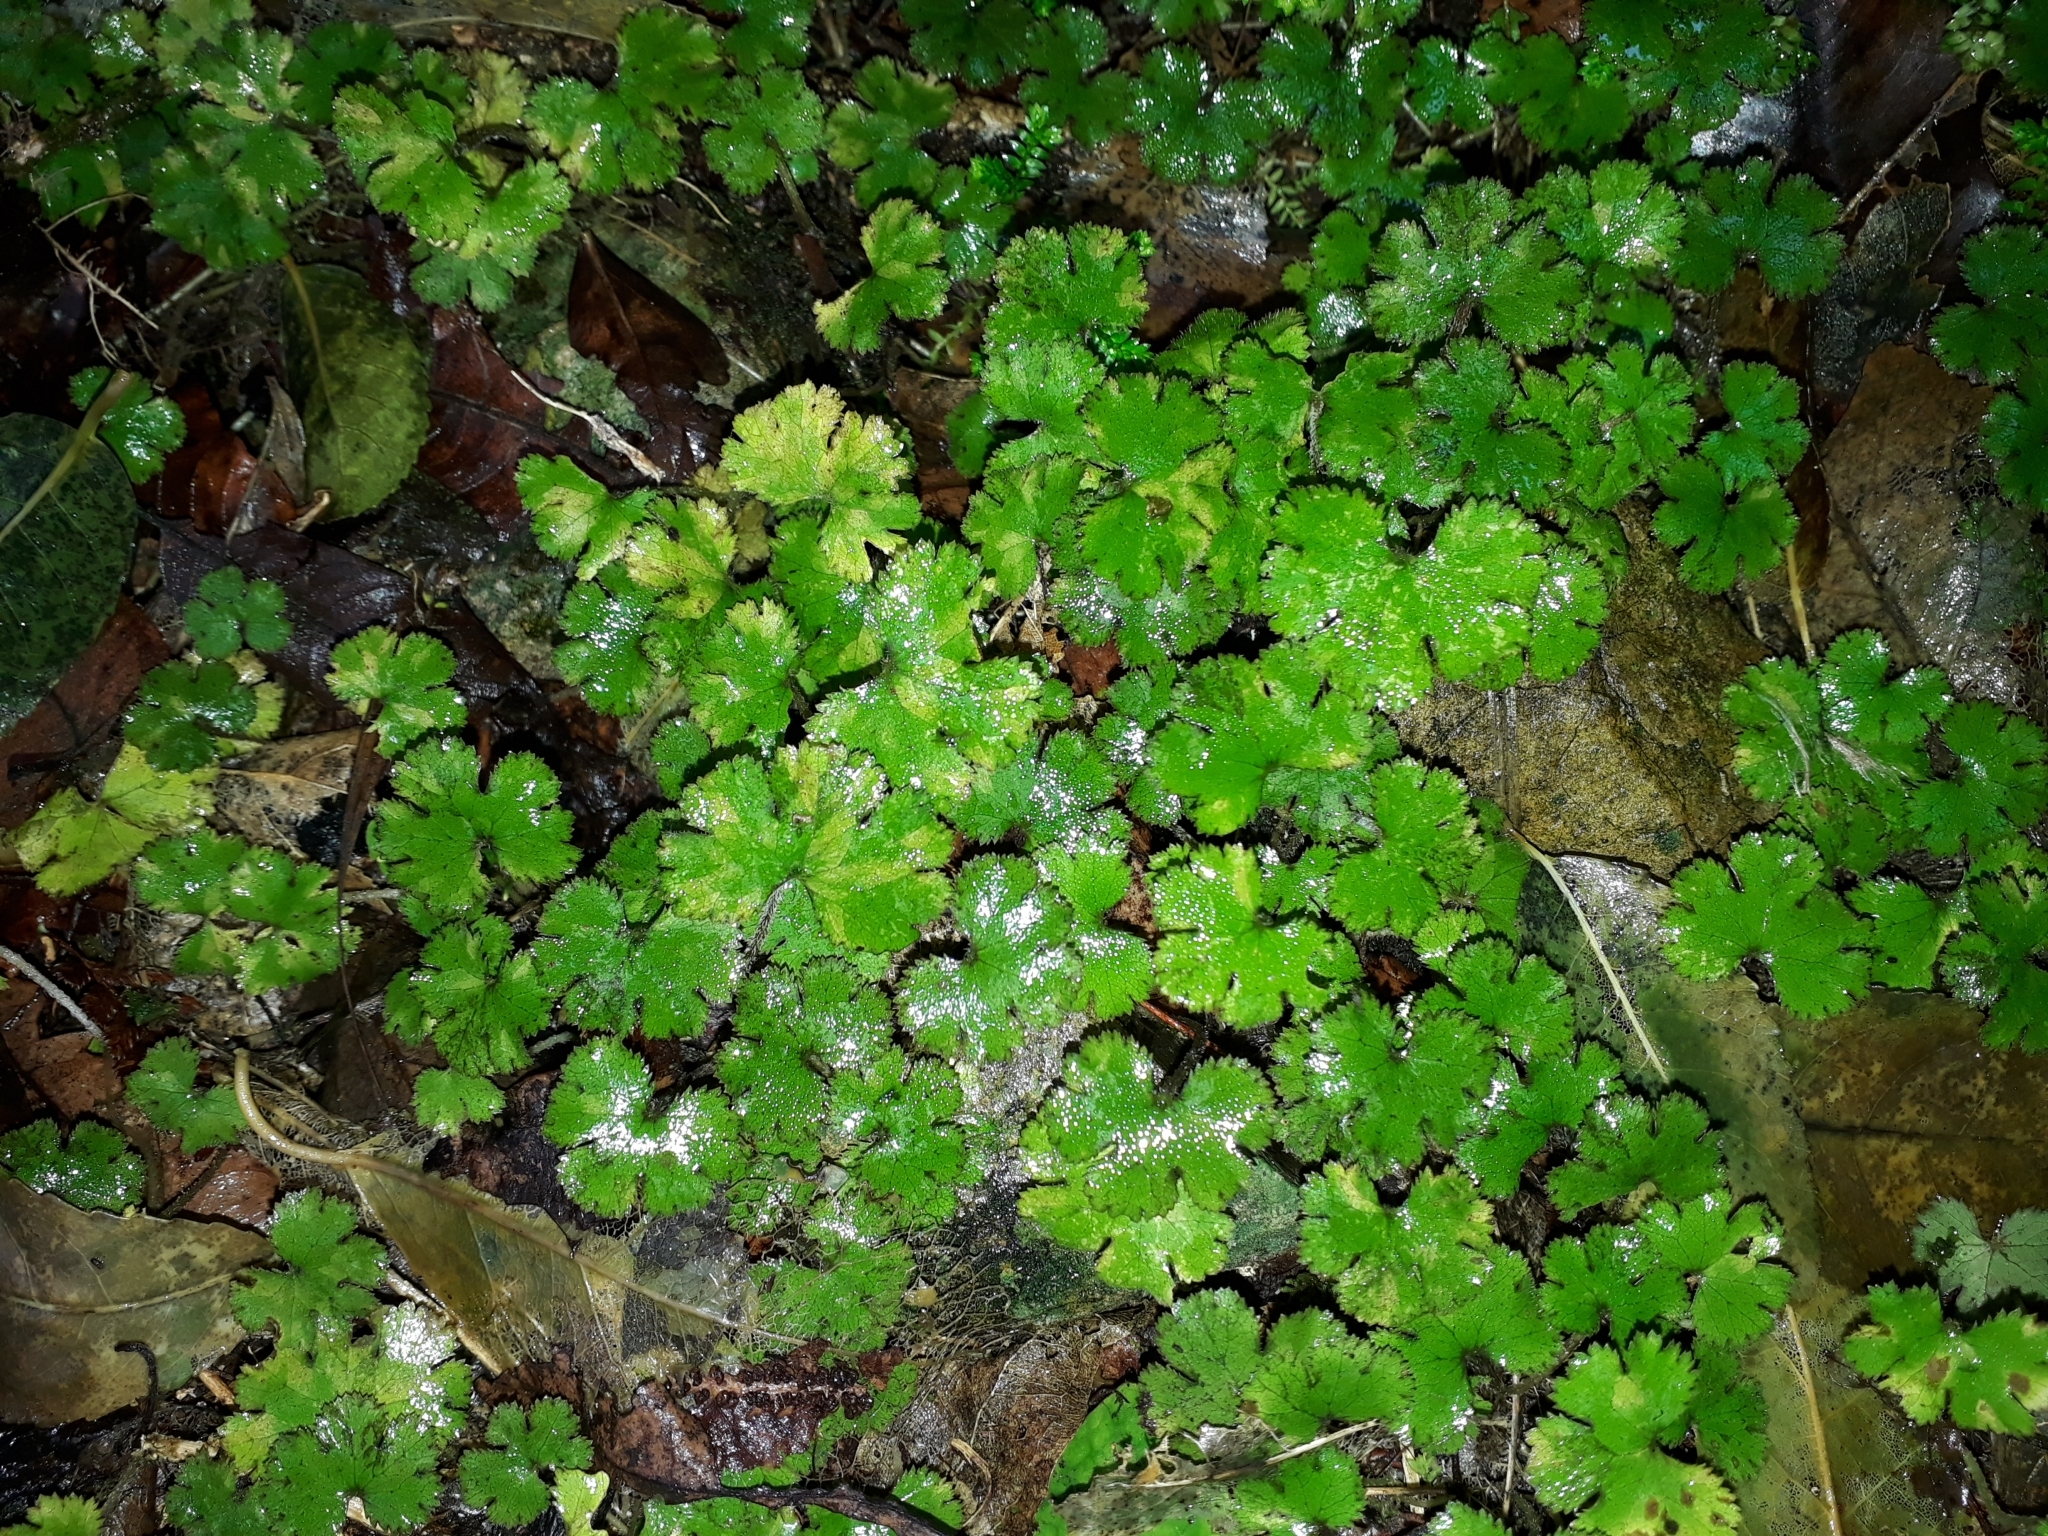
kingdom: Plantae
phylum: Tracheophyta
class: Magnoliopsida
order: Apiales
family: Araliaceae
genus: Hydrocotyle
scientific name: Hydrocotyle elongata
